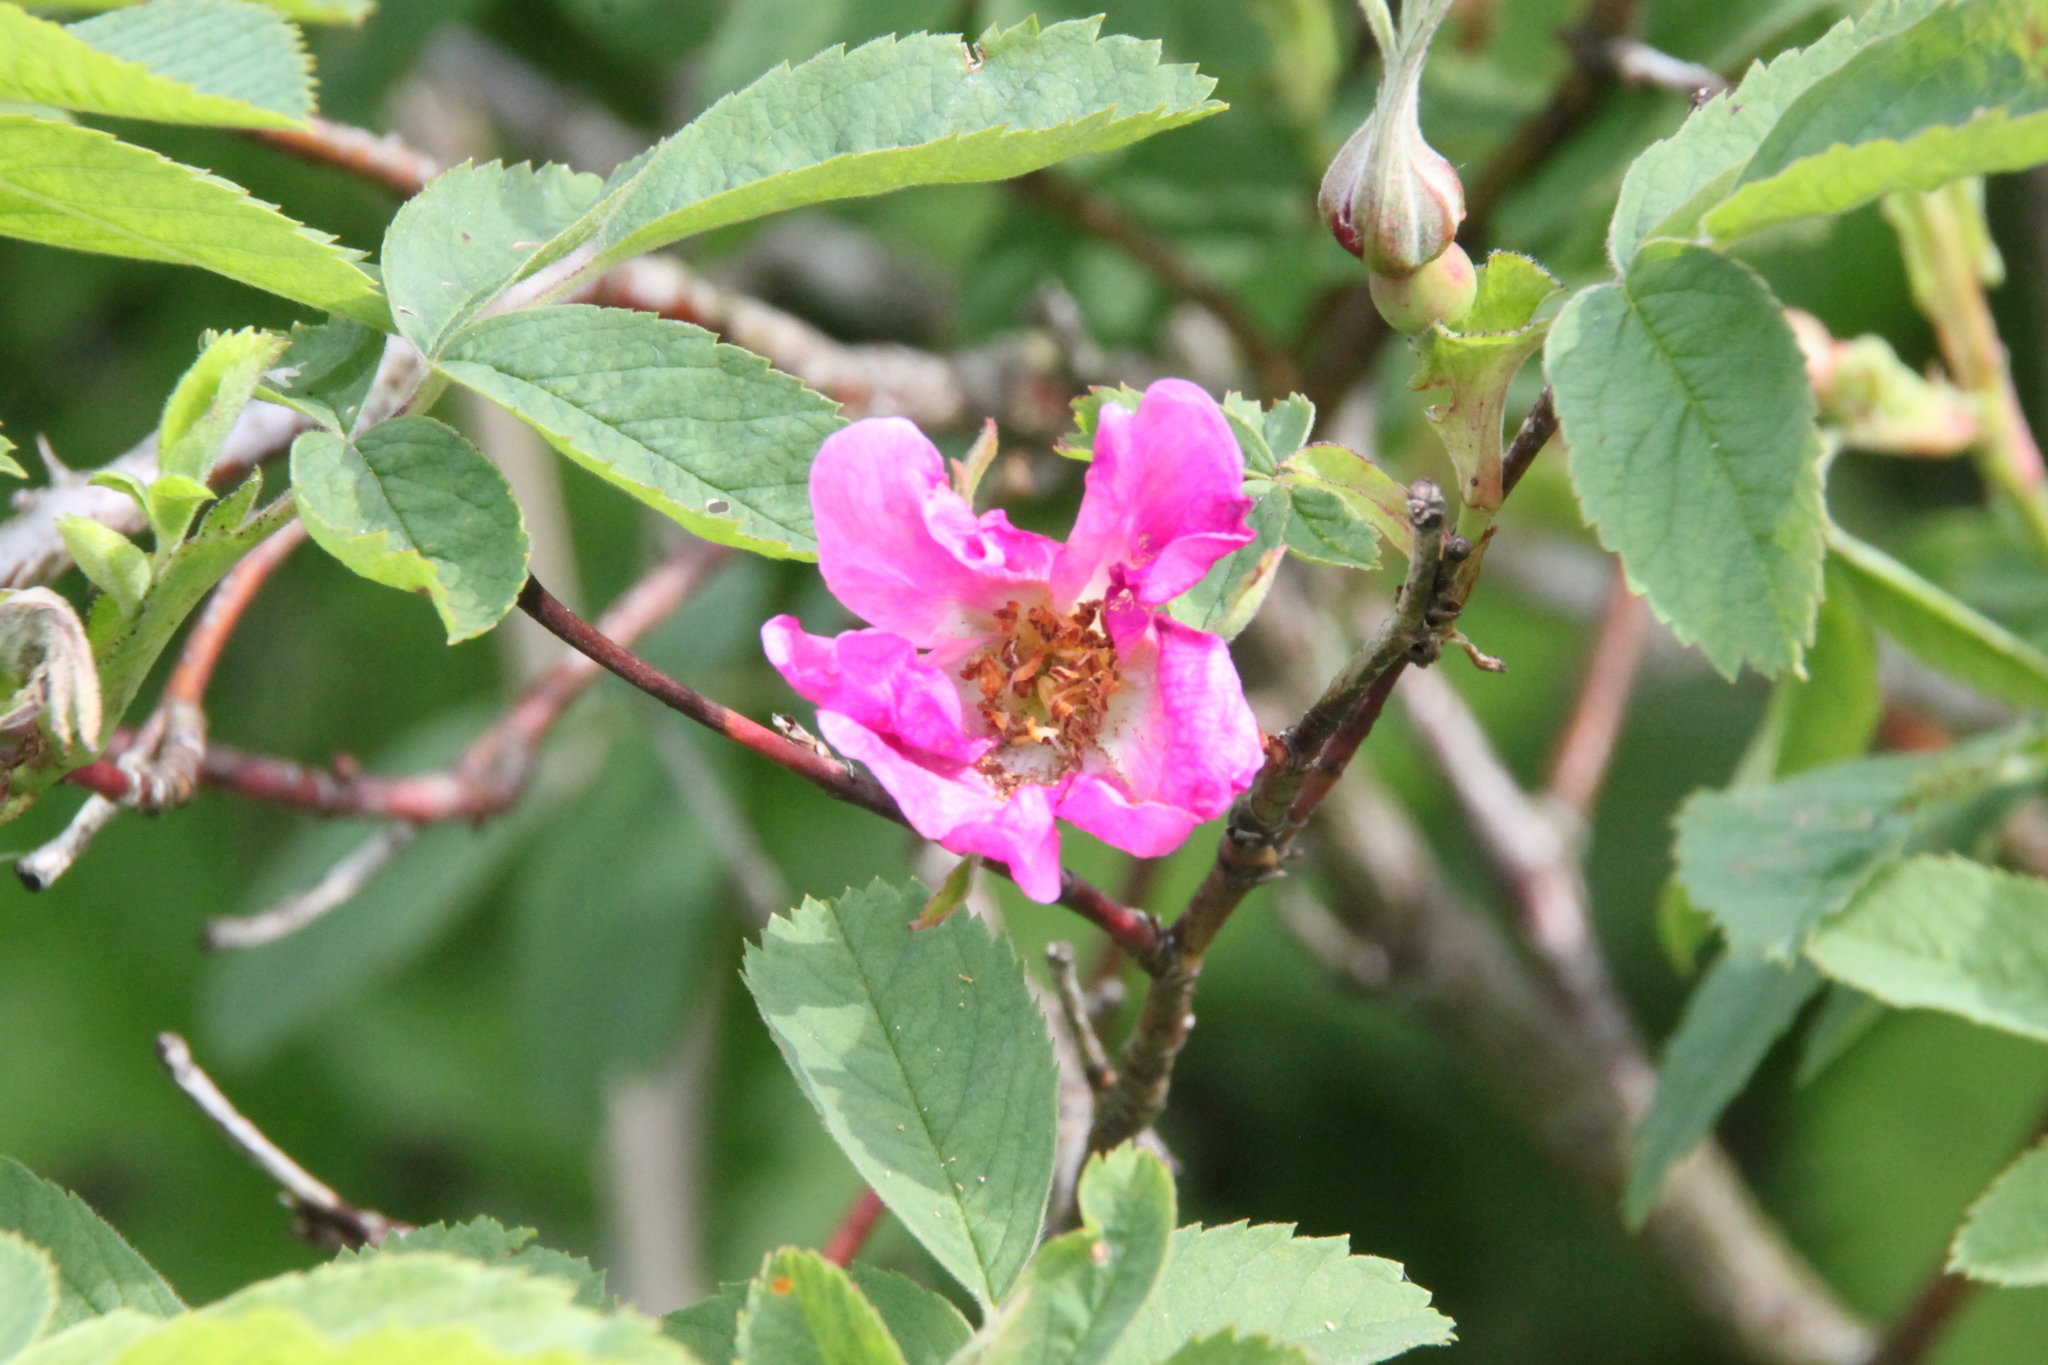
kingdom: Plantae
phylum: Tracheophyta
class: Magnoliopsida
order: Rosales
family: Rosaceae
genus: Rosa
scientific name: Rosa majalis
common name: Cinnamon rose
